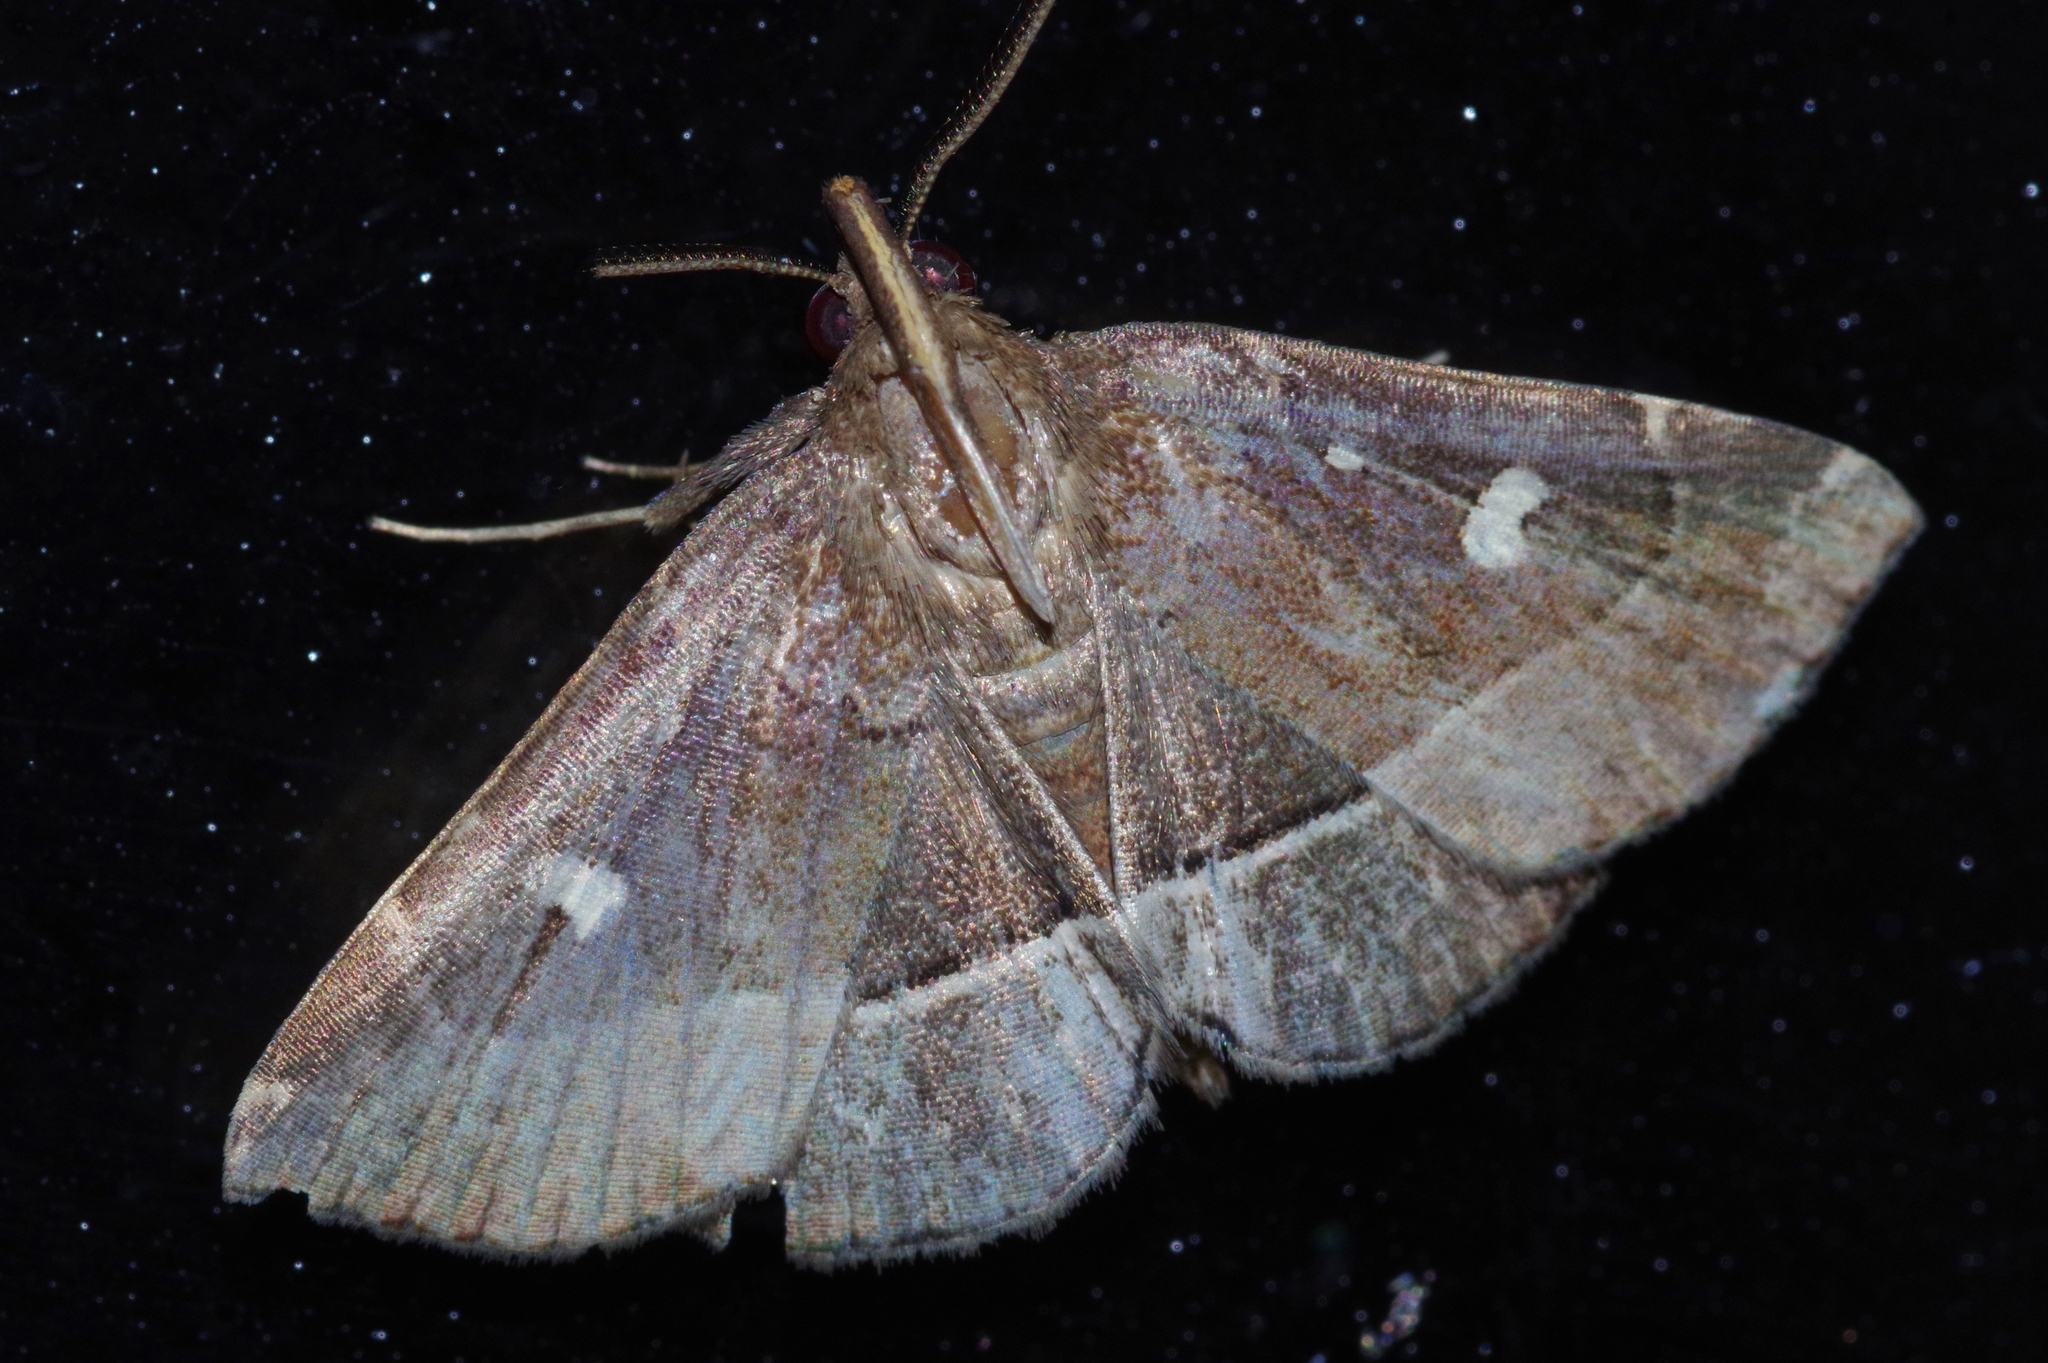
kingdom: Animalia
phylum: Arthropoda
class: Insecta
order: Lepidoptera
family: Erebidae
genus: Cidariplura
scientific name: Cidariplura gladiata
